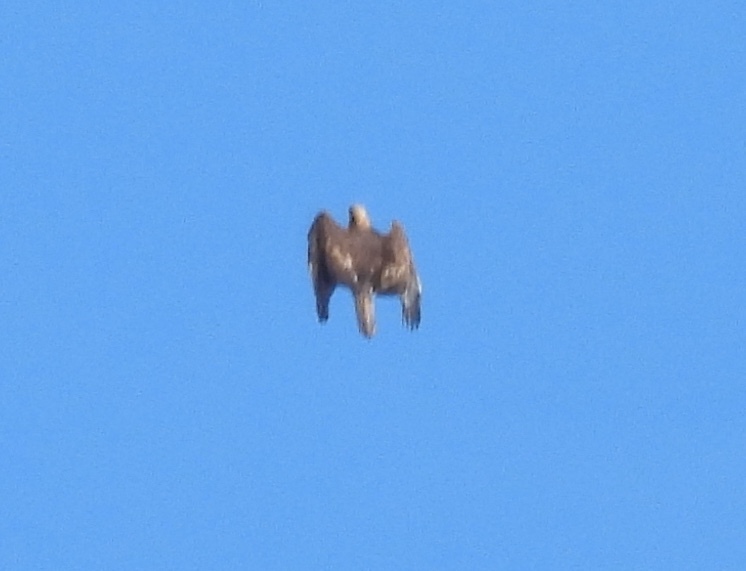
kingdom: Animalia
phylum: Chordata
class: Aves
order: Accipitriformes
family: Accipitridae
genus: Aquila
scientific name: Aquila chrysaetos
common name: Golden eagle
